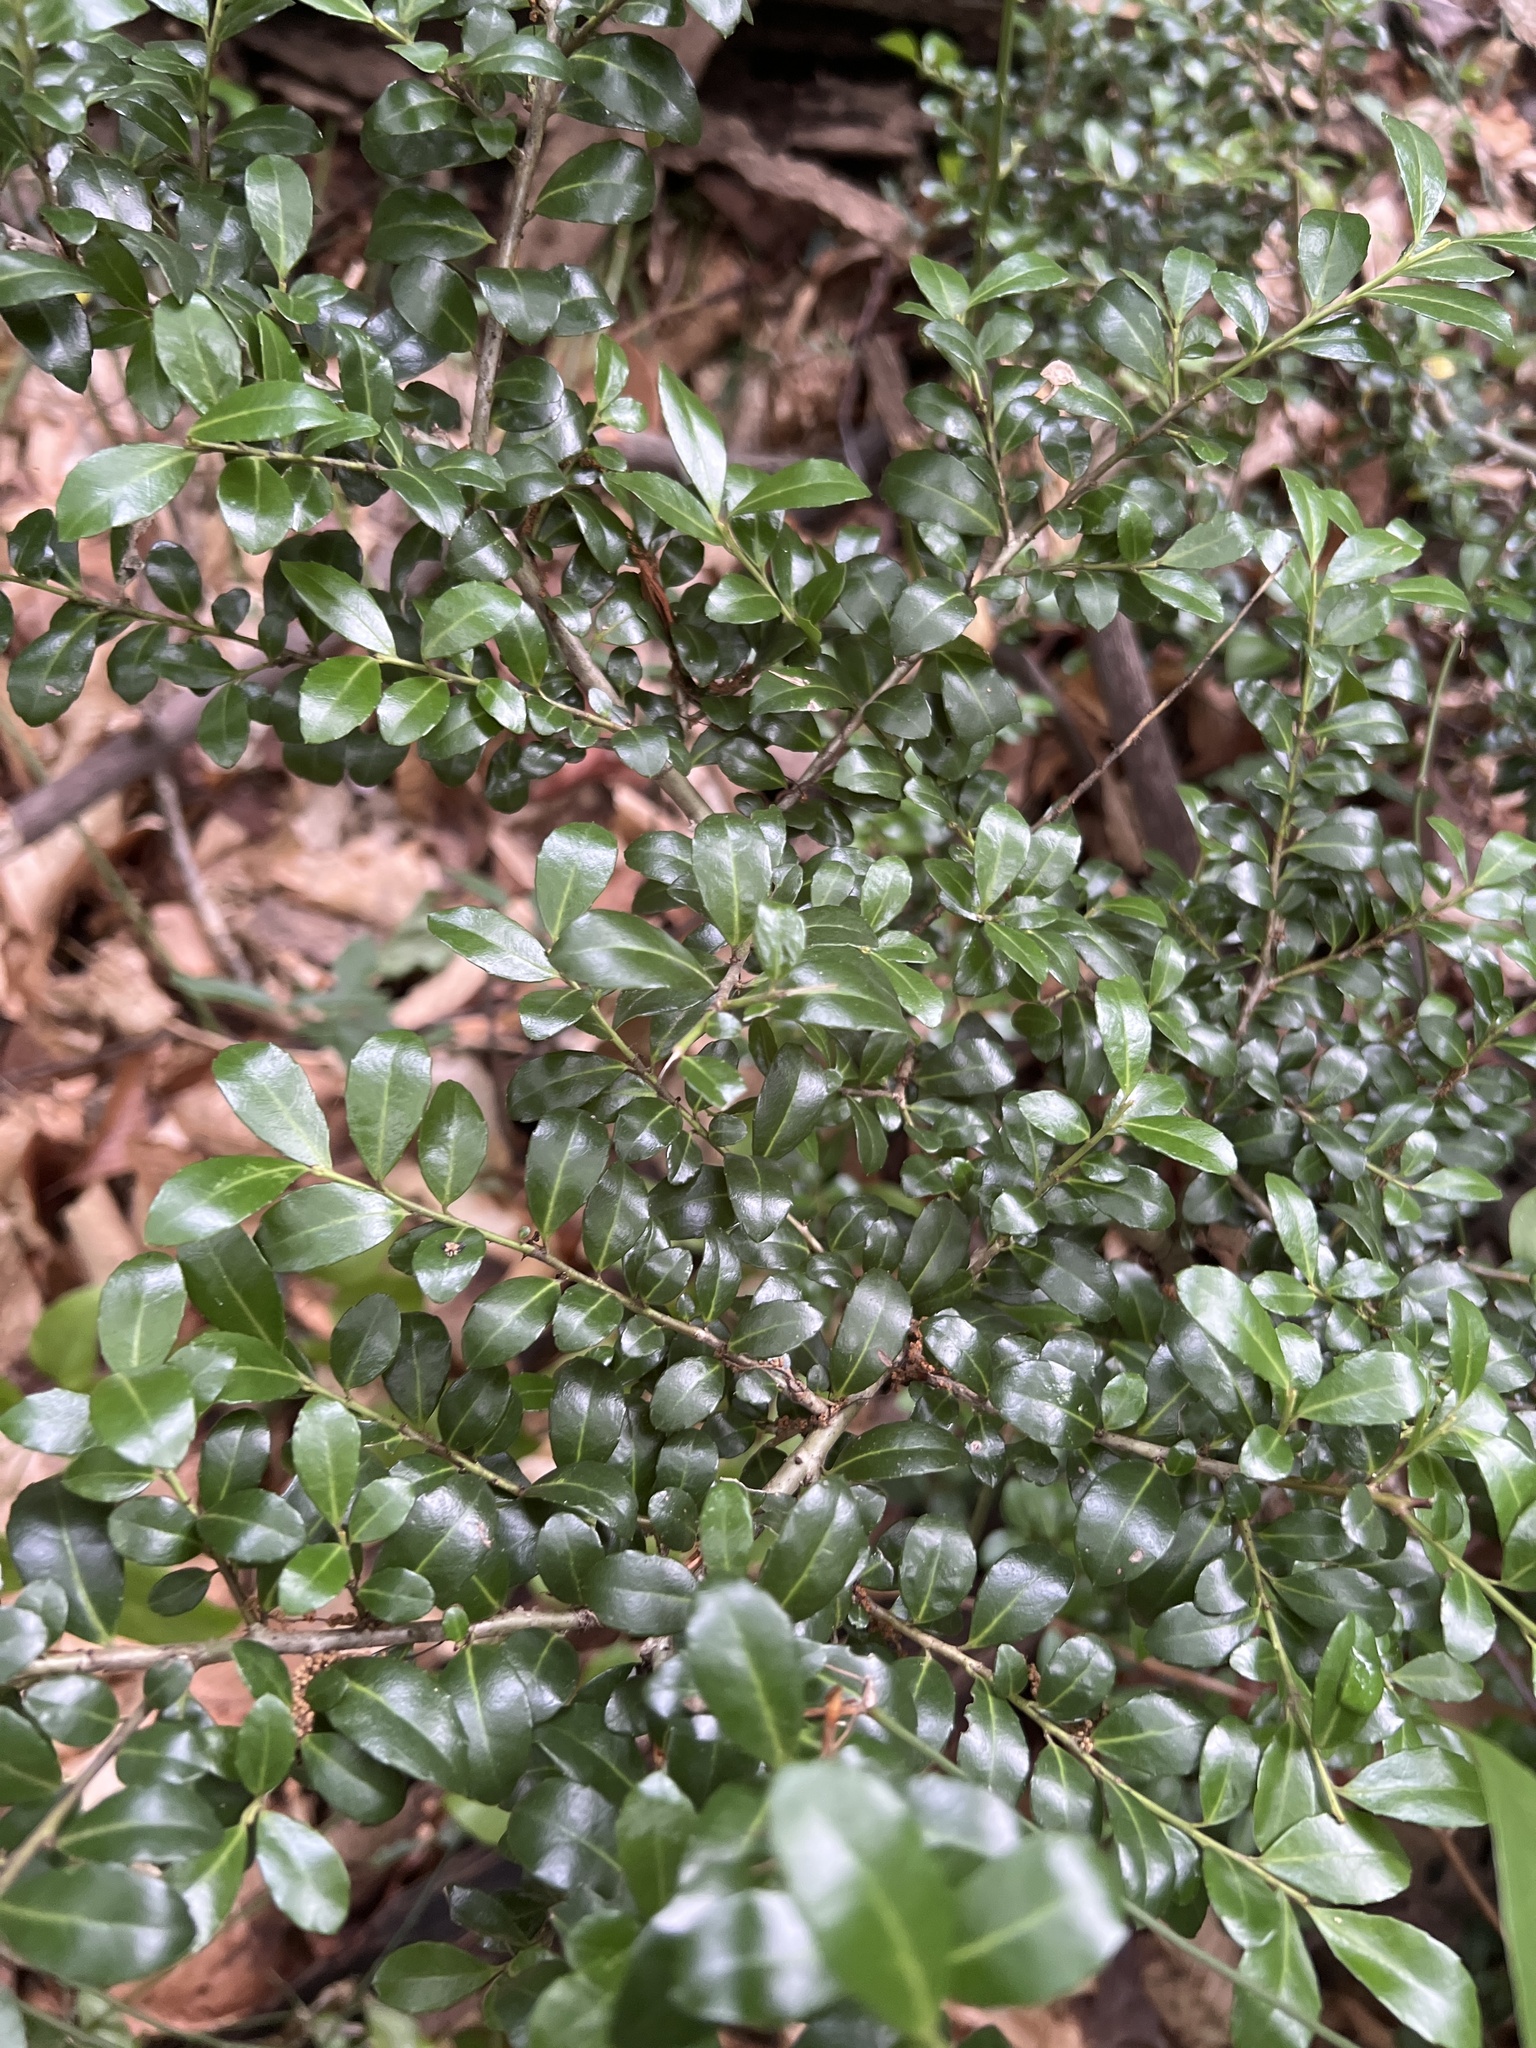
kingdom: Plantae
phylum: Tracheophyta
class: Magnoliopsida
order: Aquifoliales
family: Aquifoliaceae
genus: Ilex
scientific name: Ilex crenata
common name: Japanese holly
